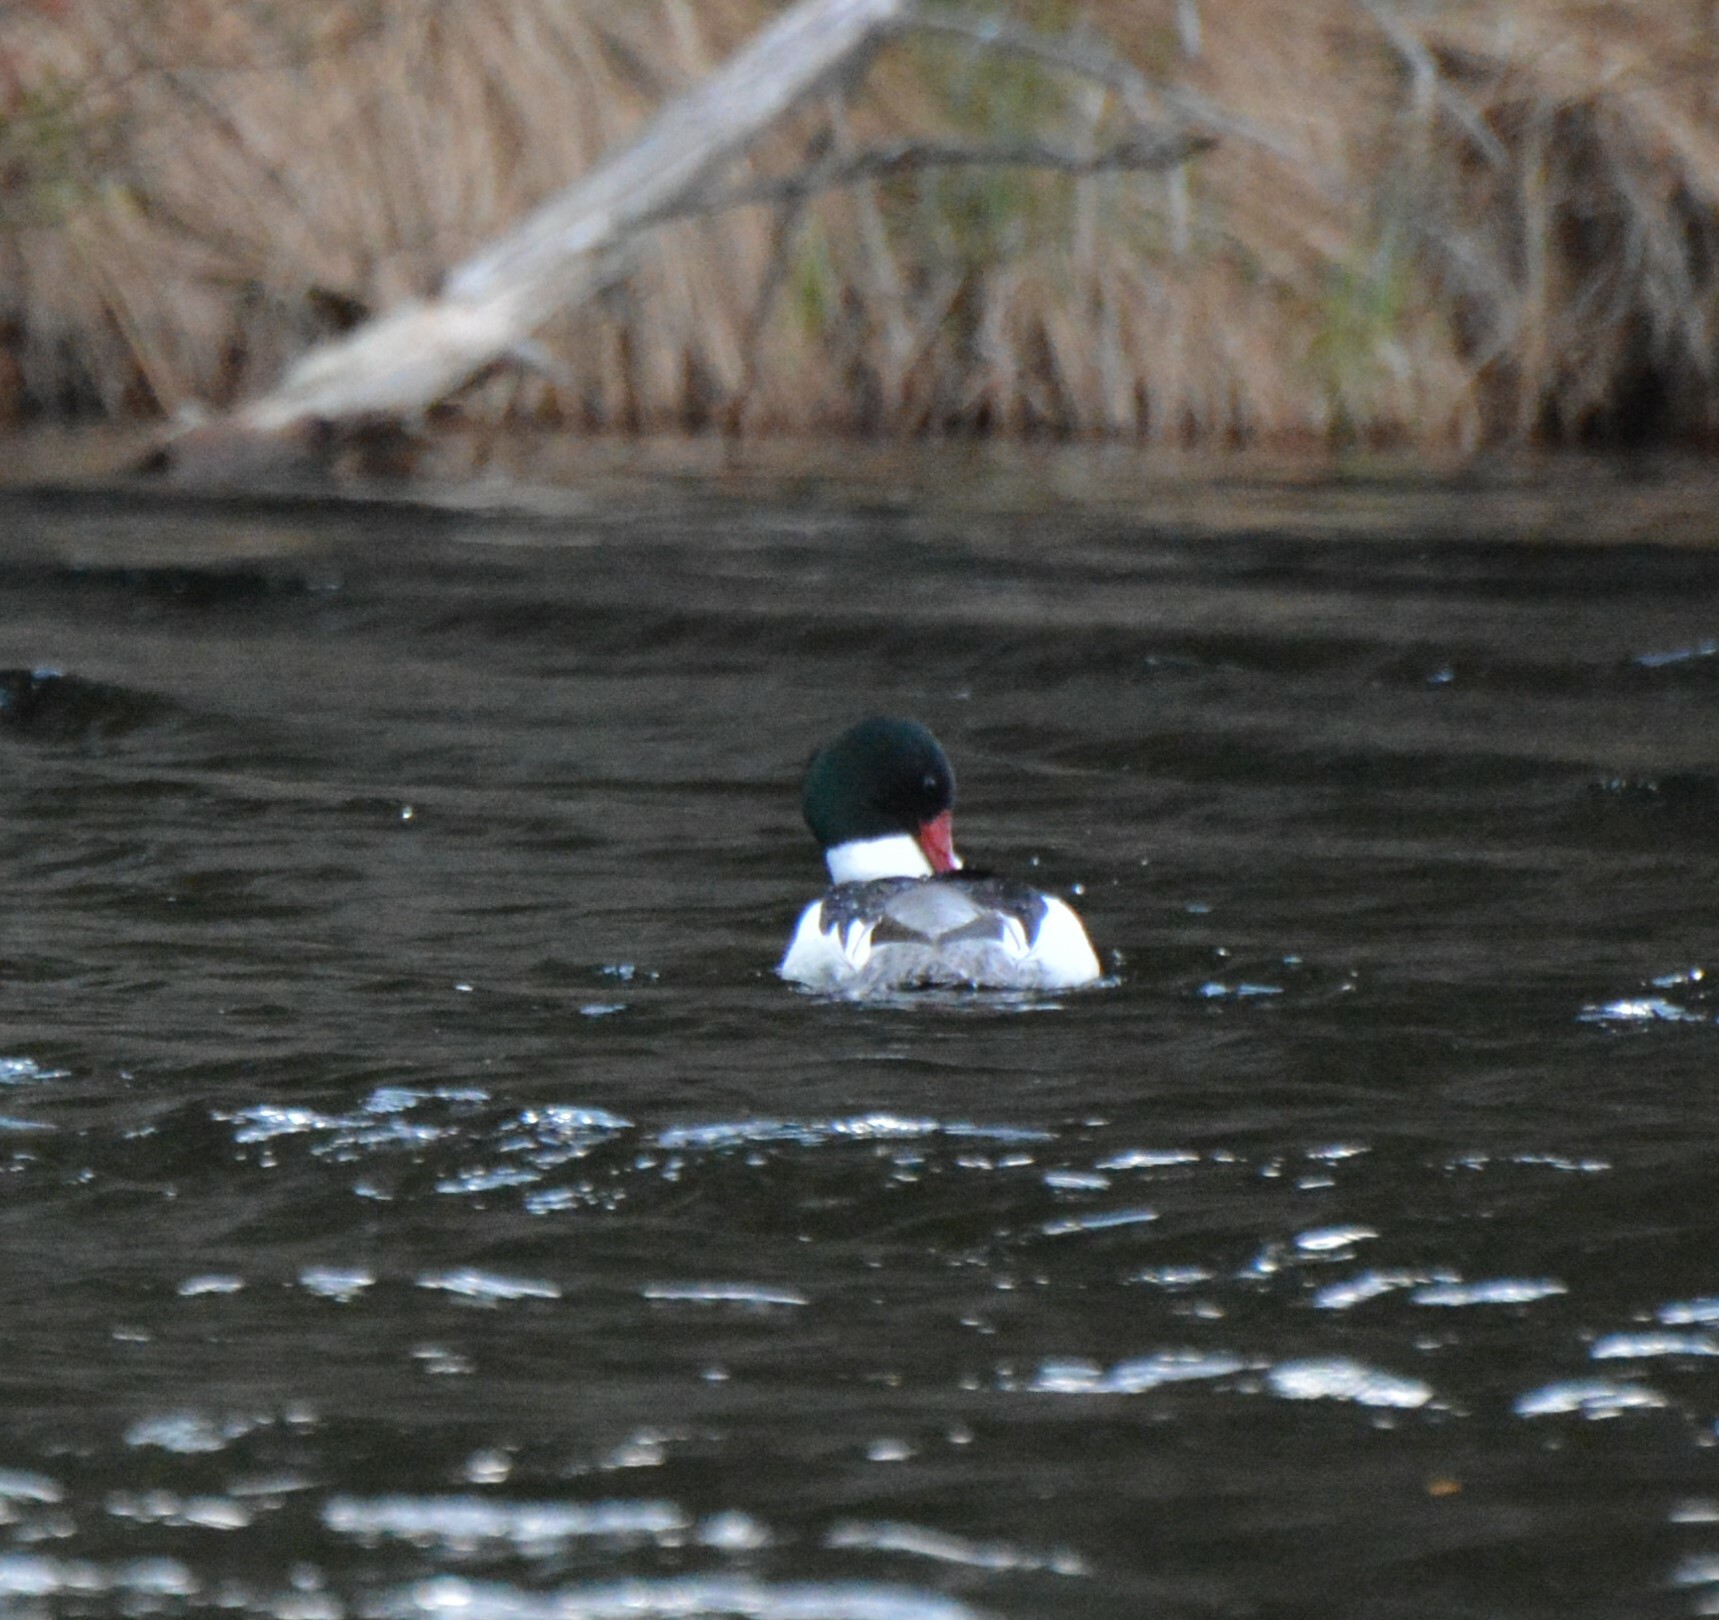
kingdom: Animalia
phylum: Chordata
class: Aves
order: Anseriformes
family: Anatidae
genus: Mergus
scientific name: Mergus merganser
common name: Common merganser
